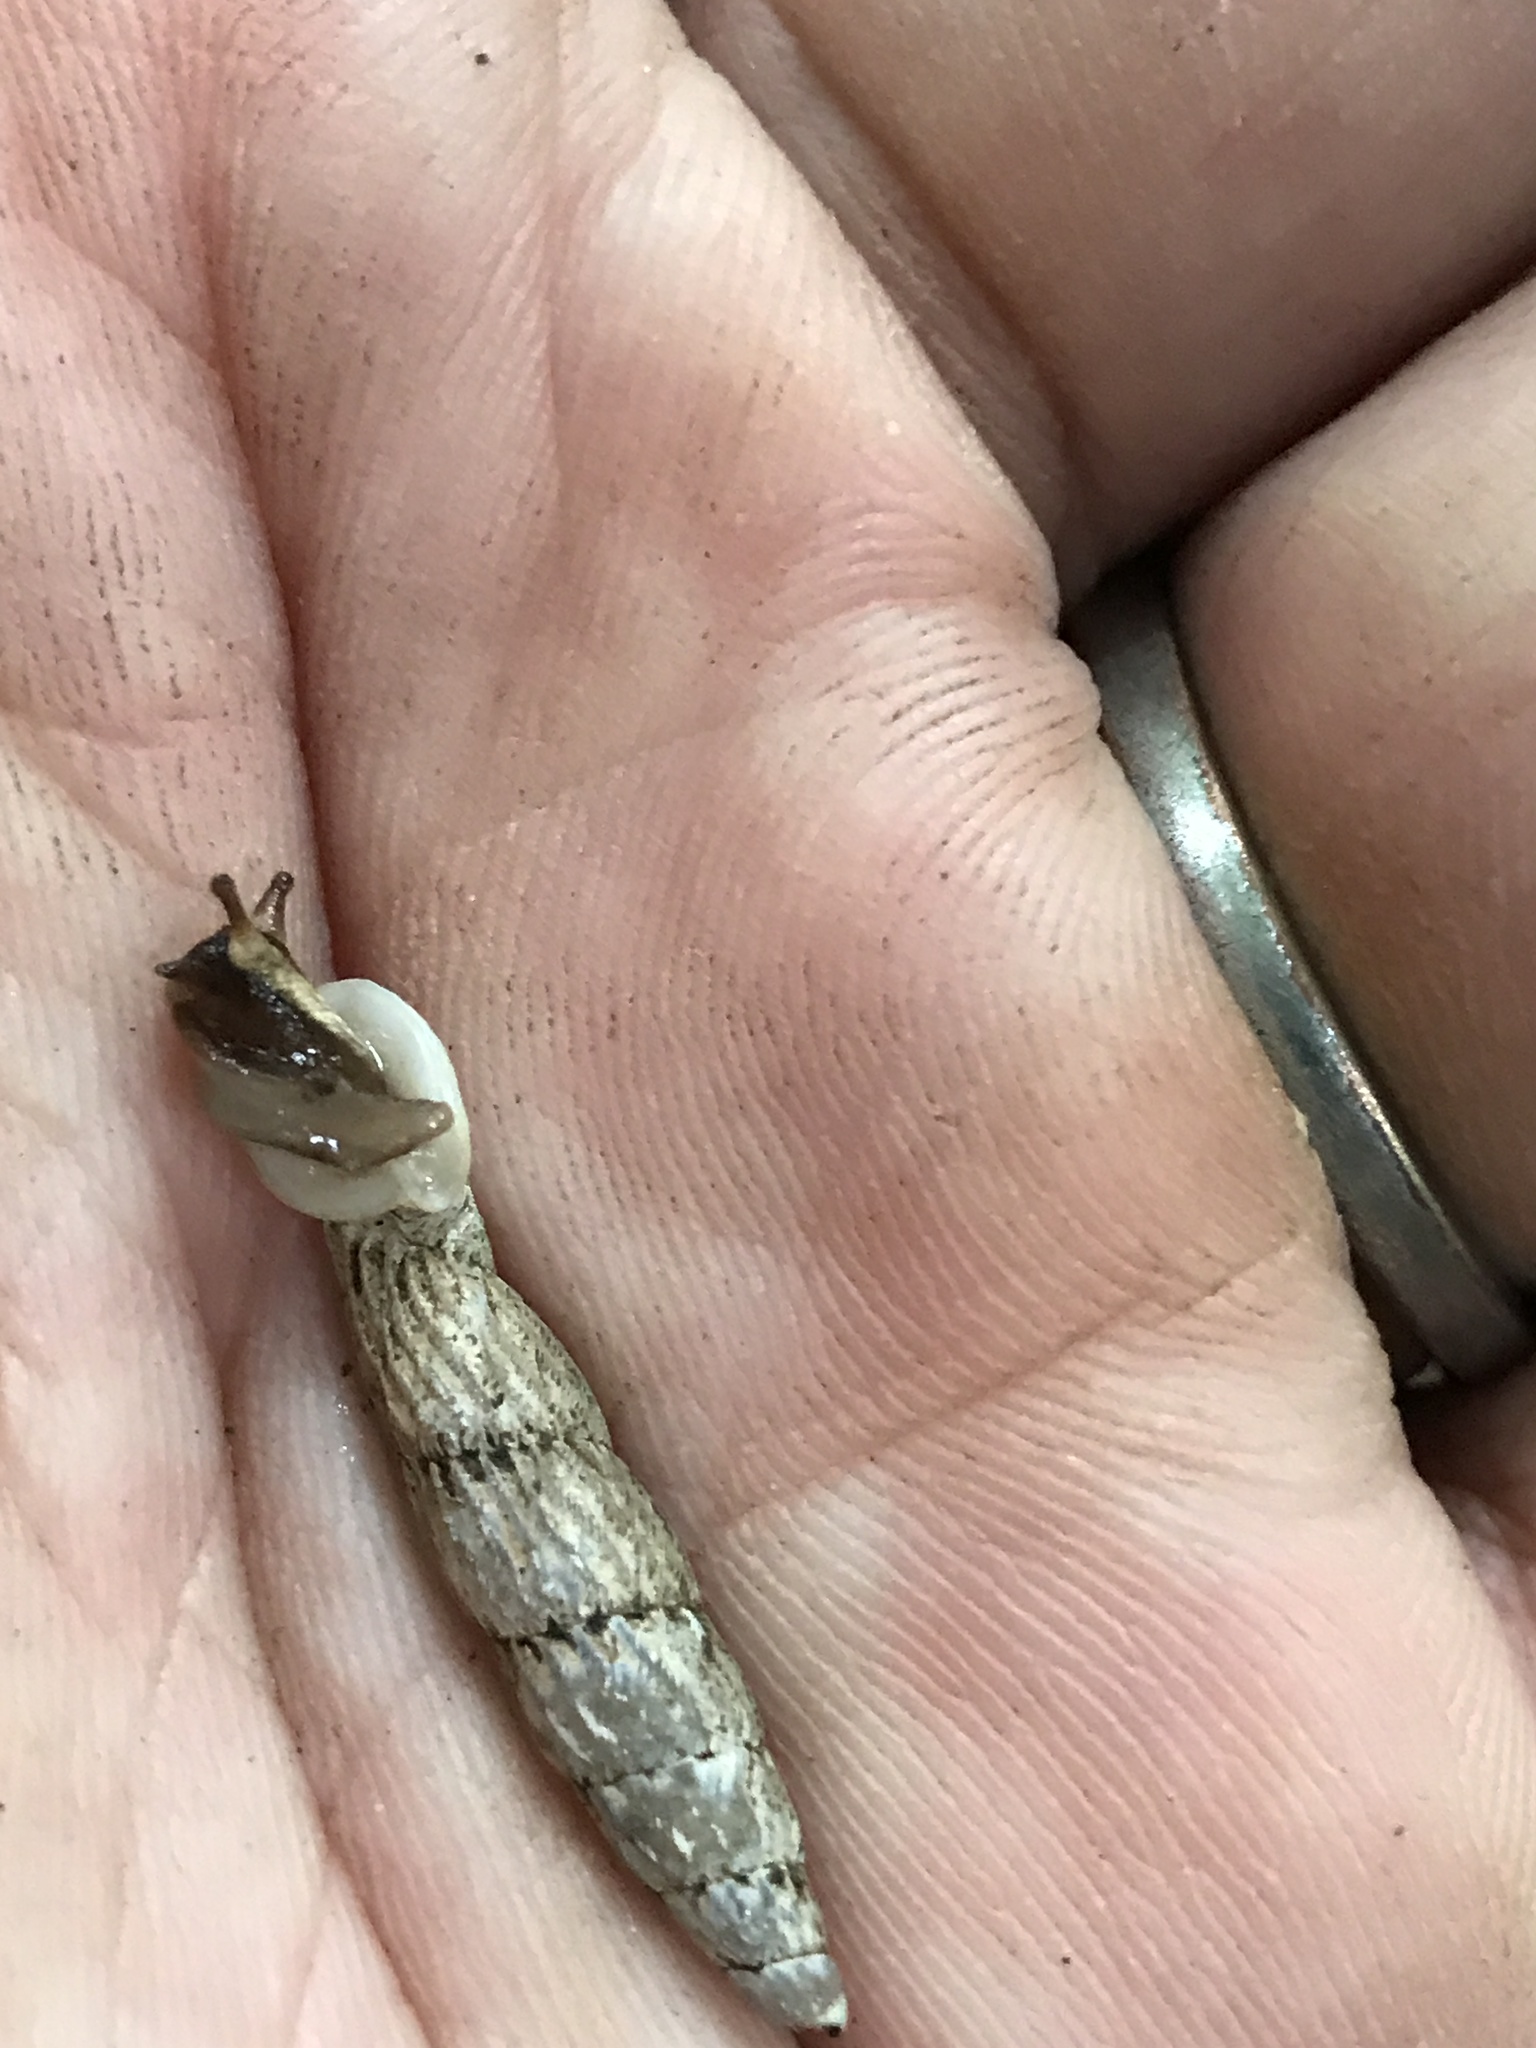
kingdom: Animalia
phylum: Mollusca
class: Gastropoda
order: Stylommatophora
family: Clausiliidae
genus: Nenia
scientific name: Nenia tridens
